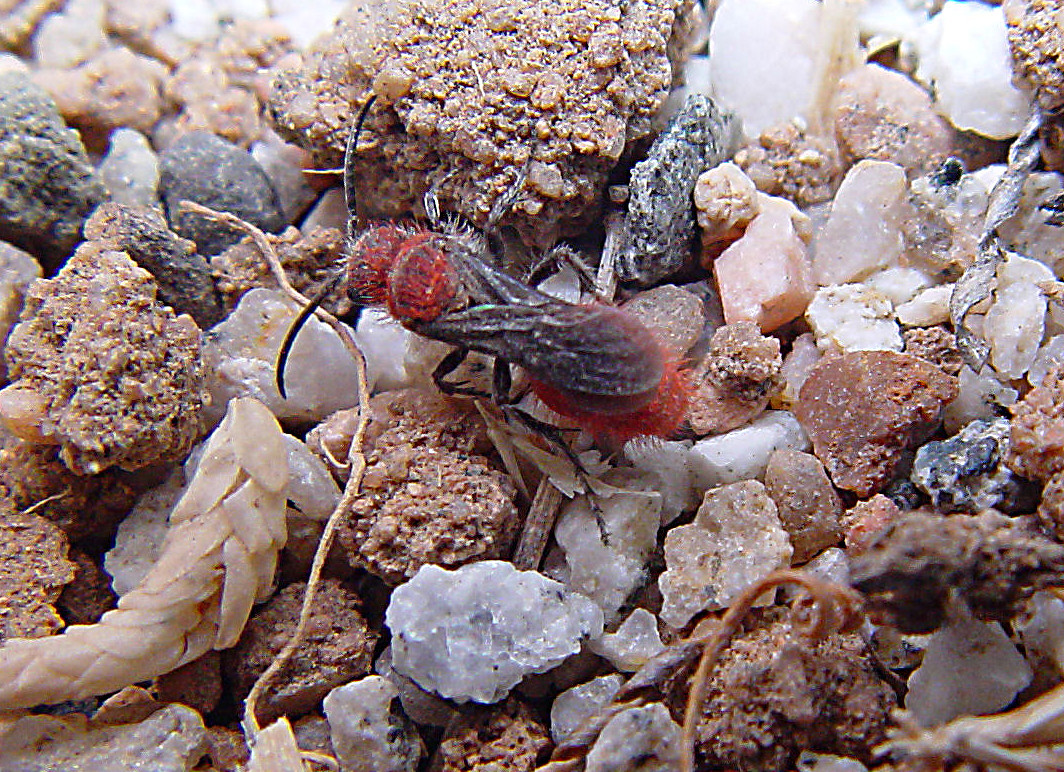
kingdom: Animalia
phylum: Arthropoda
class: Insecta
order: Hymenoptera
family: Mutillidae
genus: Dasymutilla
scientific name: Dasymutilla foxi
